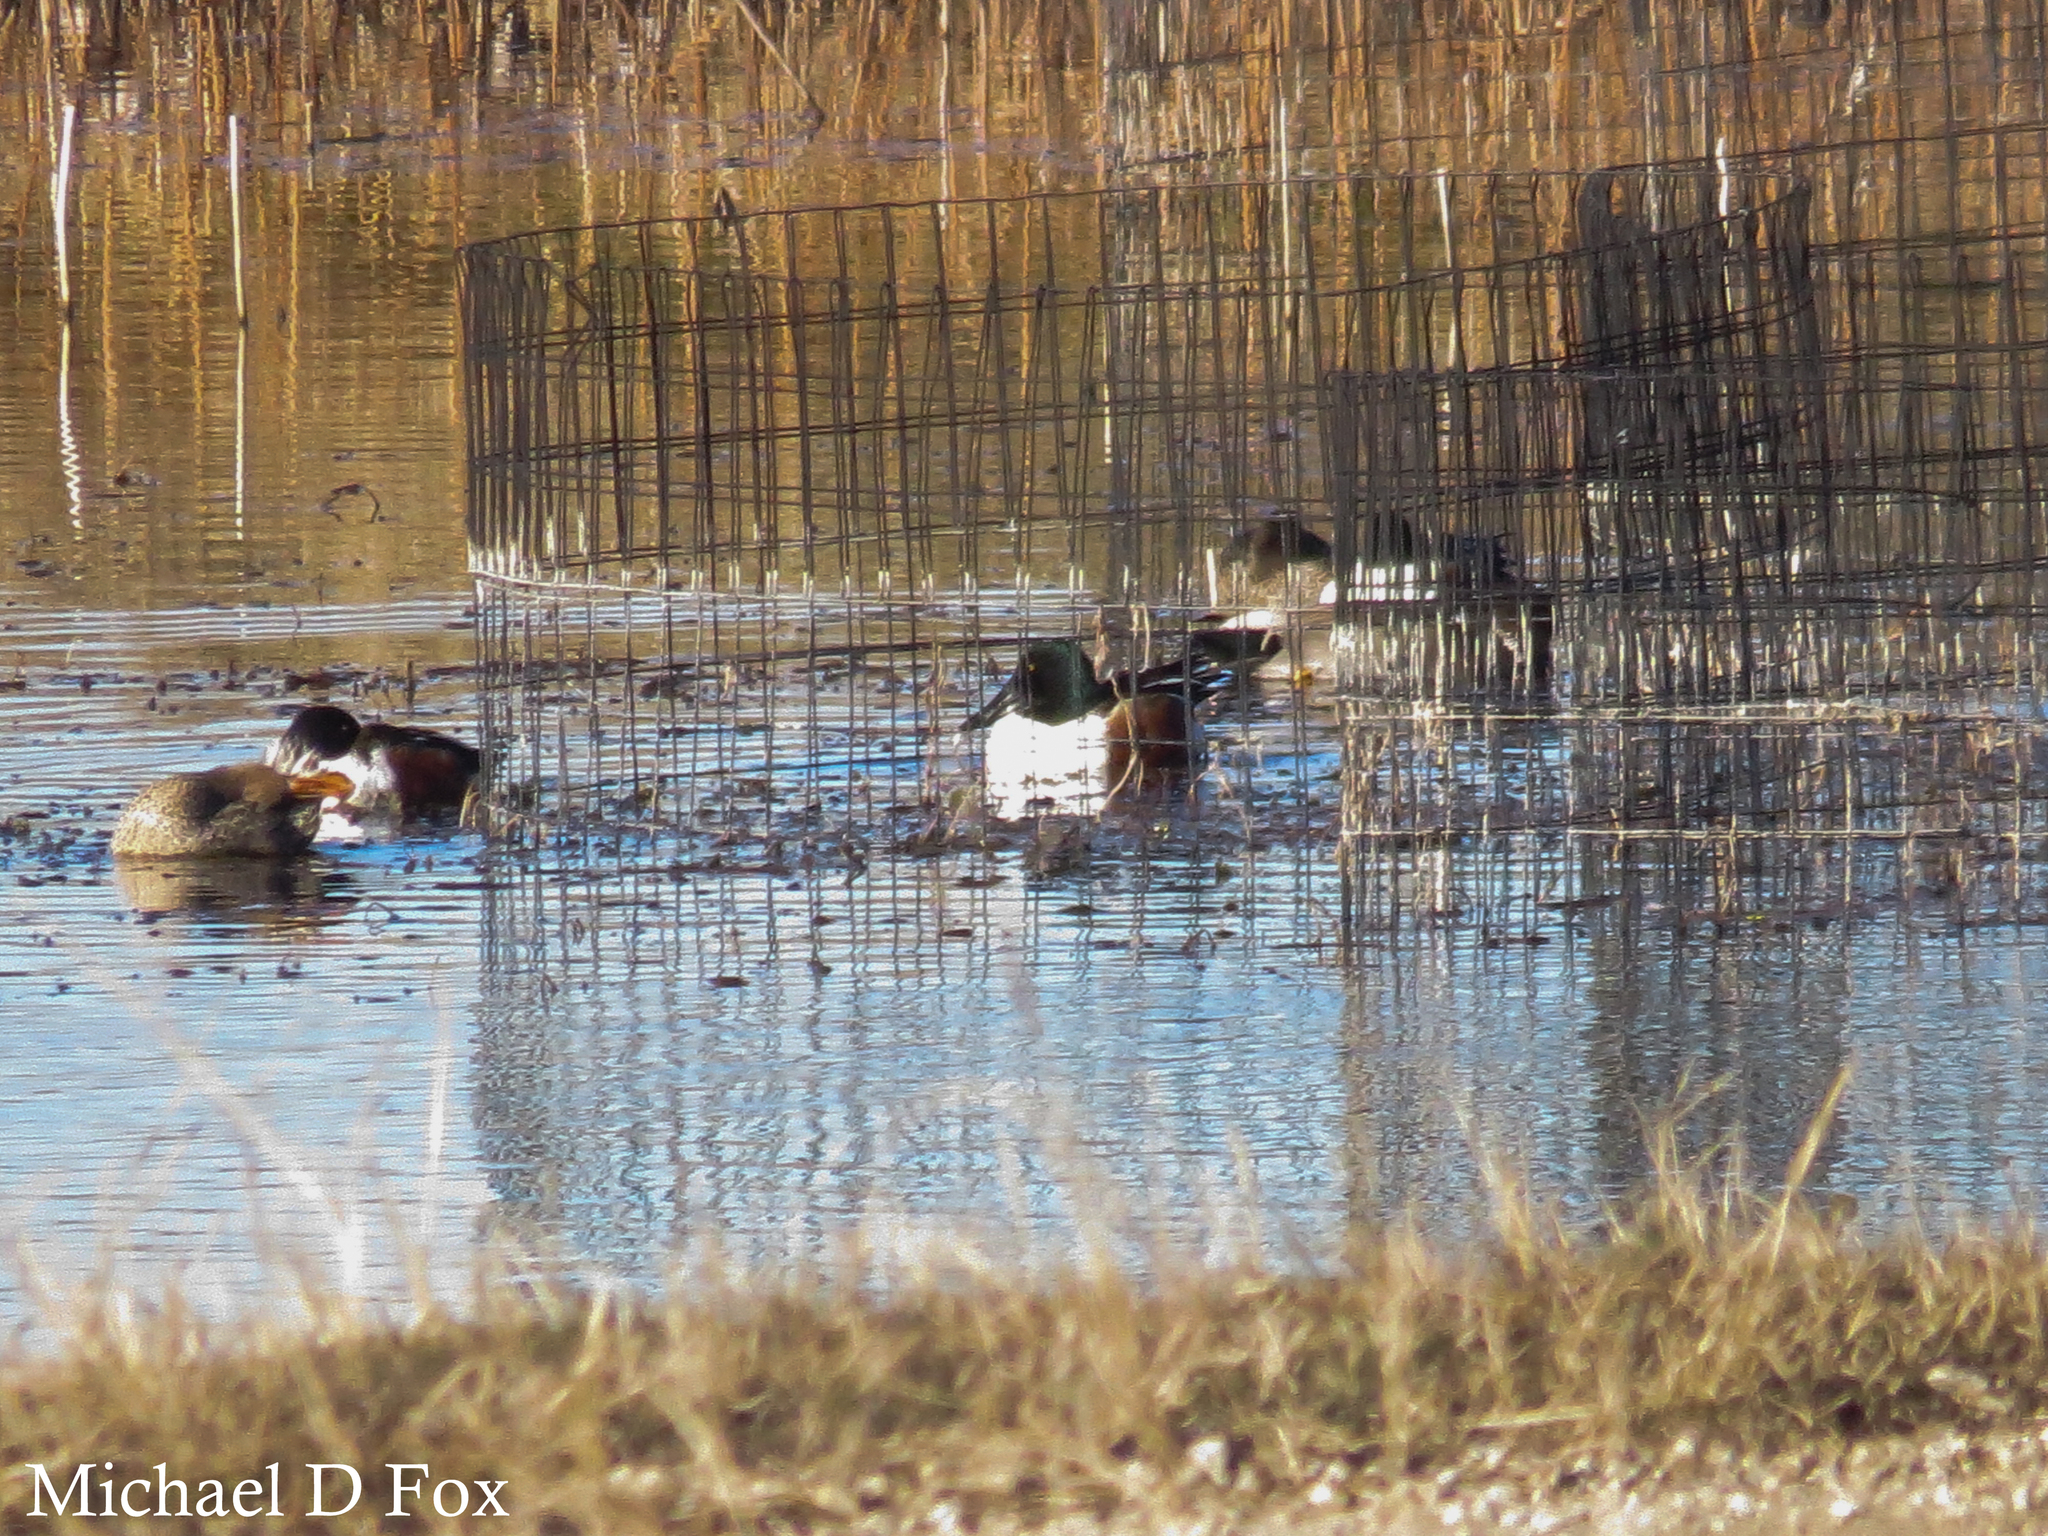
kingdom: Animalia
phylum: Chordata
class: Aves
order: Anseriformes
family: Anatidae
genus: Spatula
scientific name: Spatula clypeata
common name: Northern shoveler
